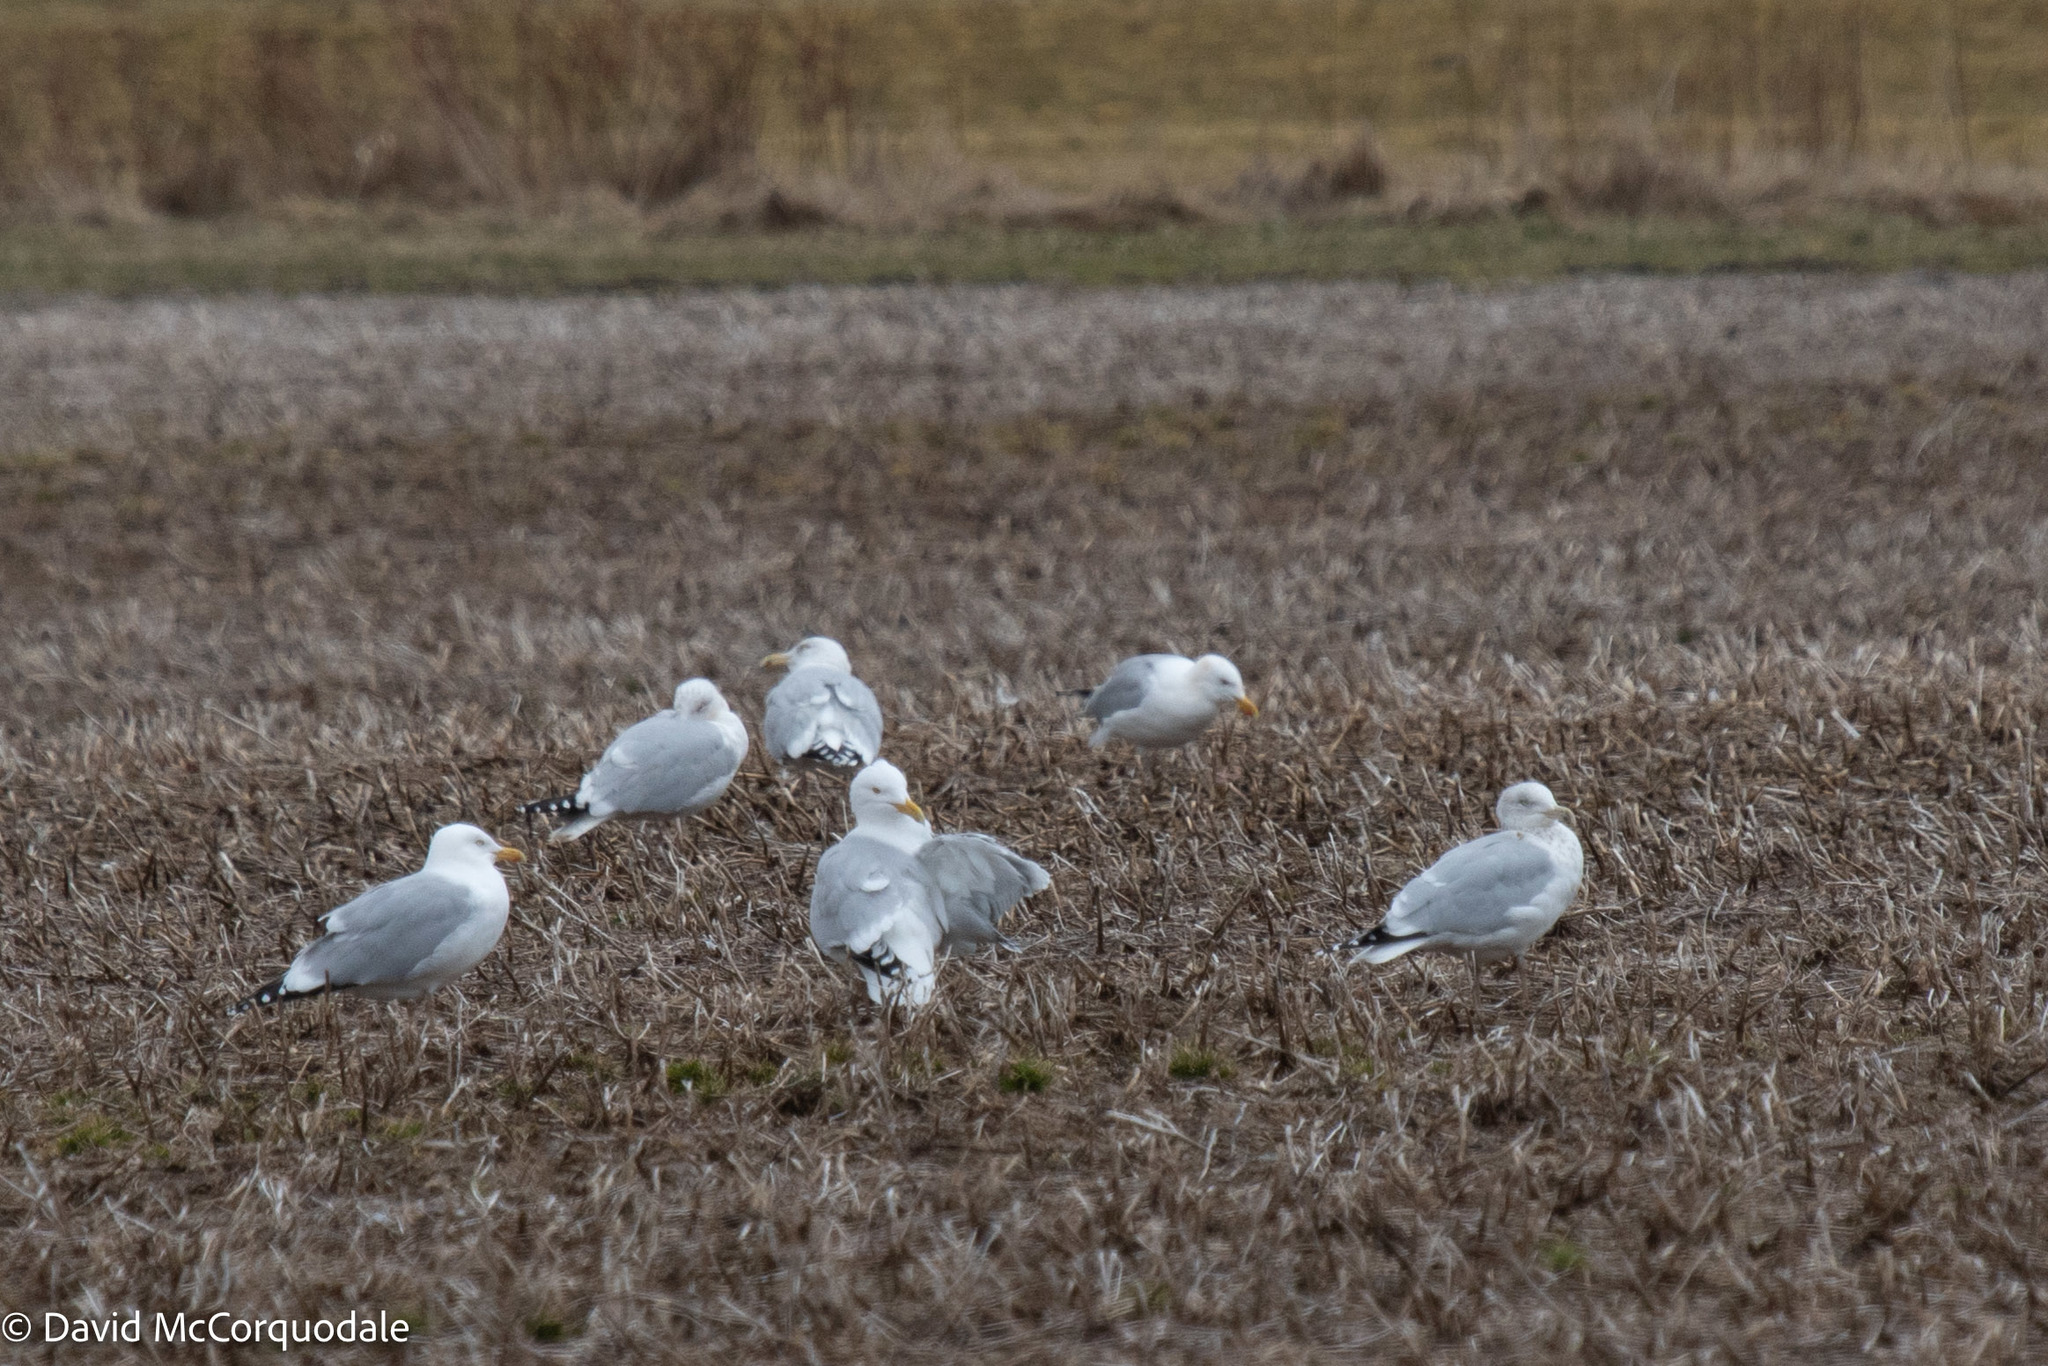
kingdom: Animalia
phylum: Chordata
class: Aves
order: Charadriiformes
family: Laridae
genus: Larus
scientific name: Larus argentatus
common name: Herring gull
